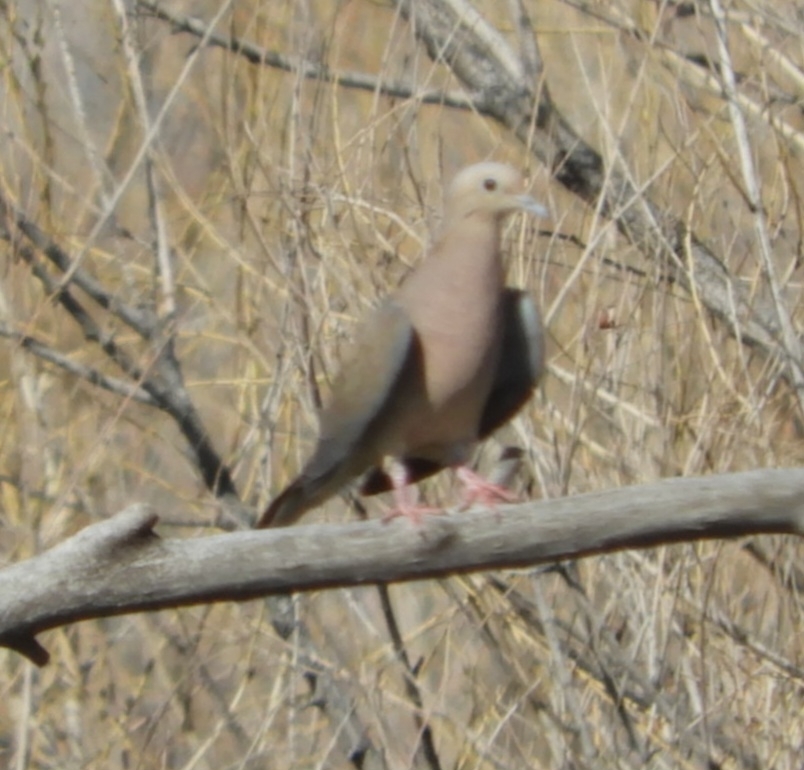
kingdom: Animalia
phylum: Chordata
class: Aves
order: Columbiformes
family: Columbidae
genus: Zenaida
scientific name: Zenaida macroura
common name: Mourning dove
